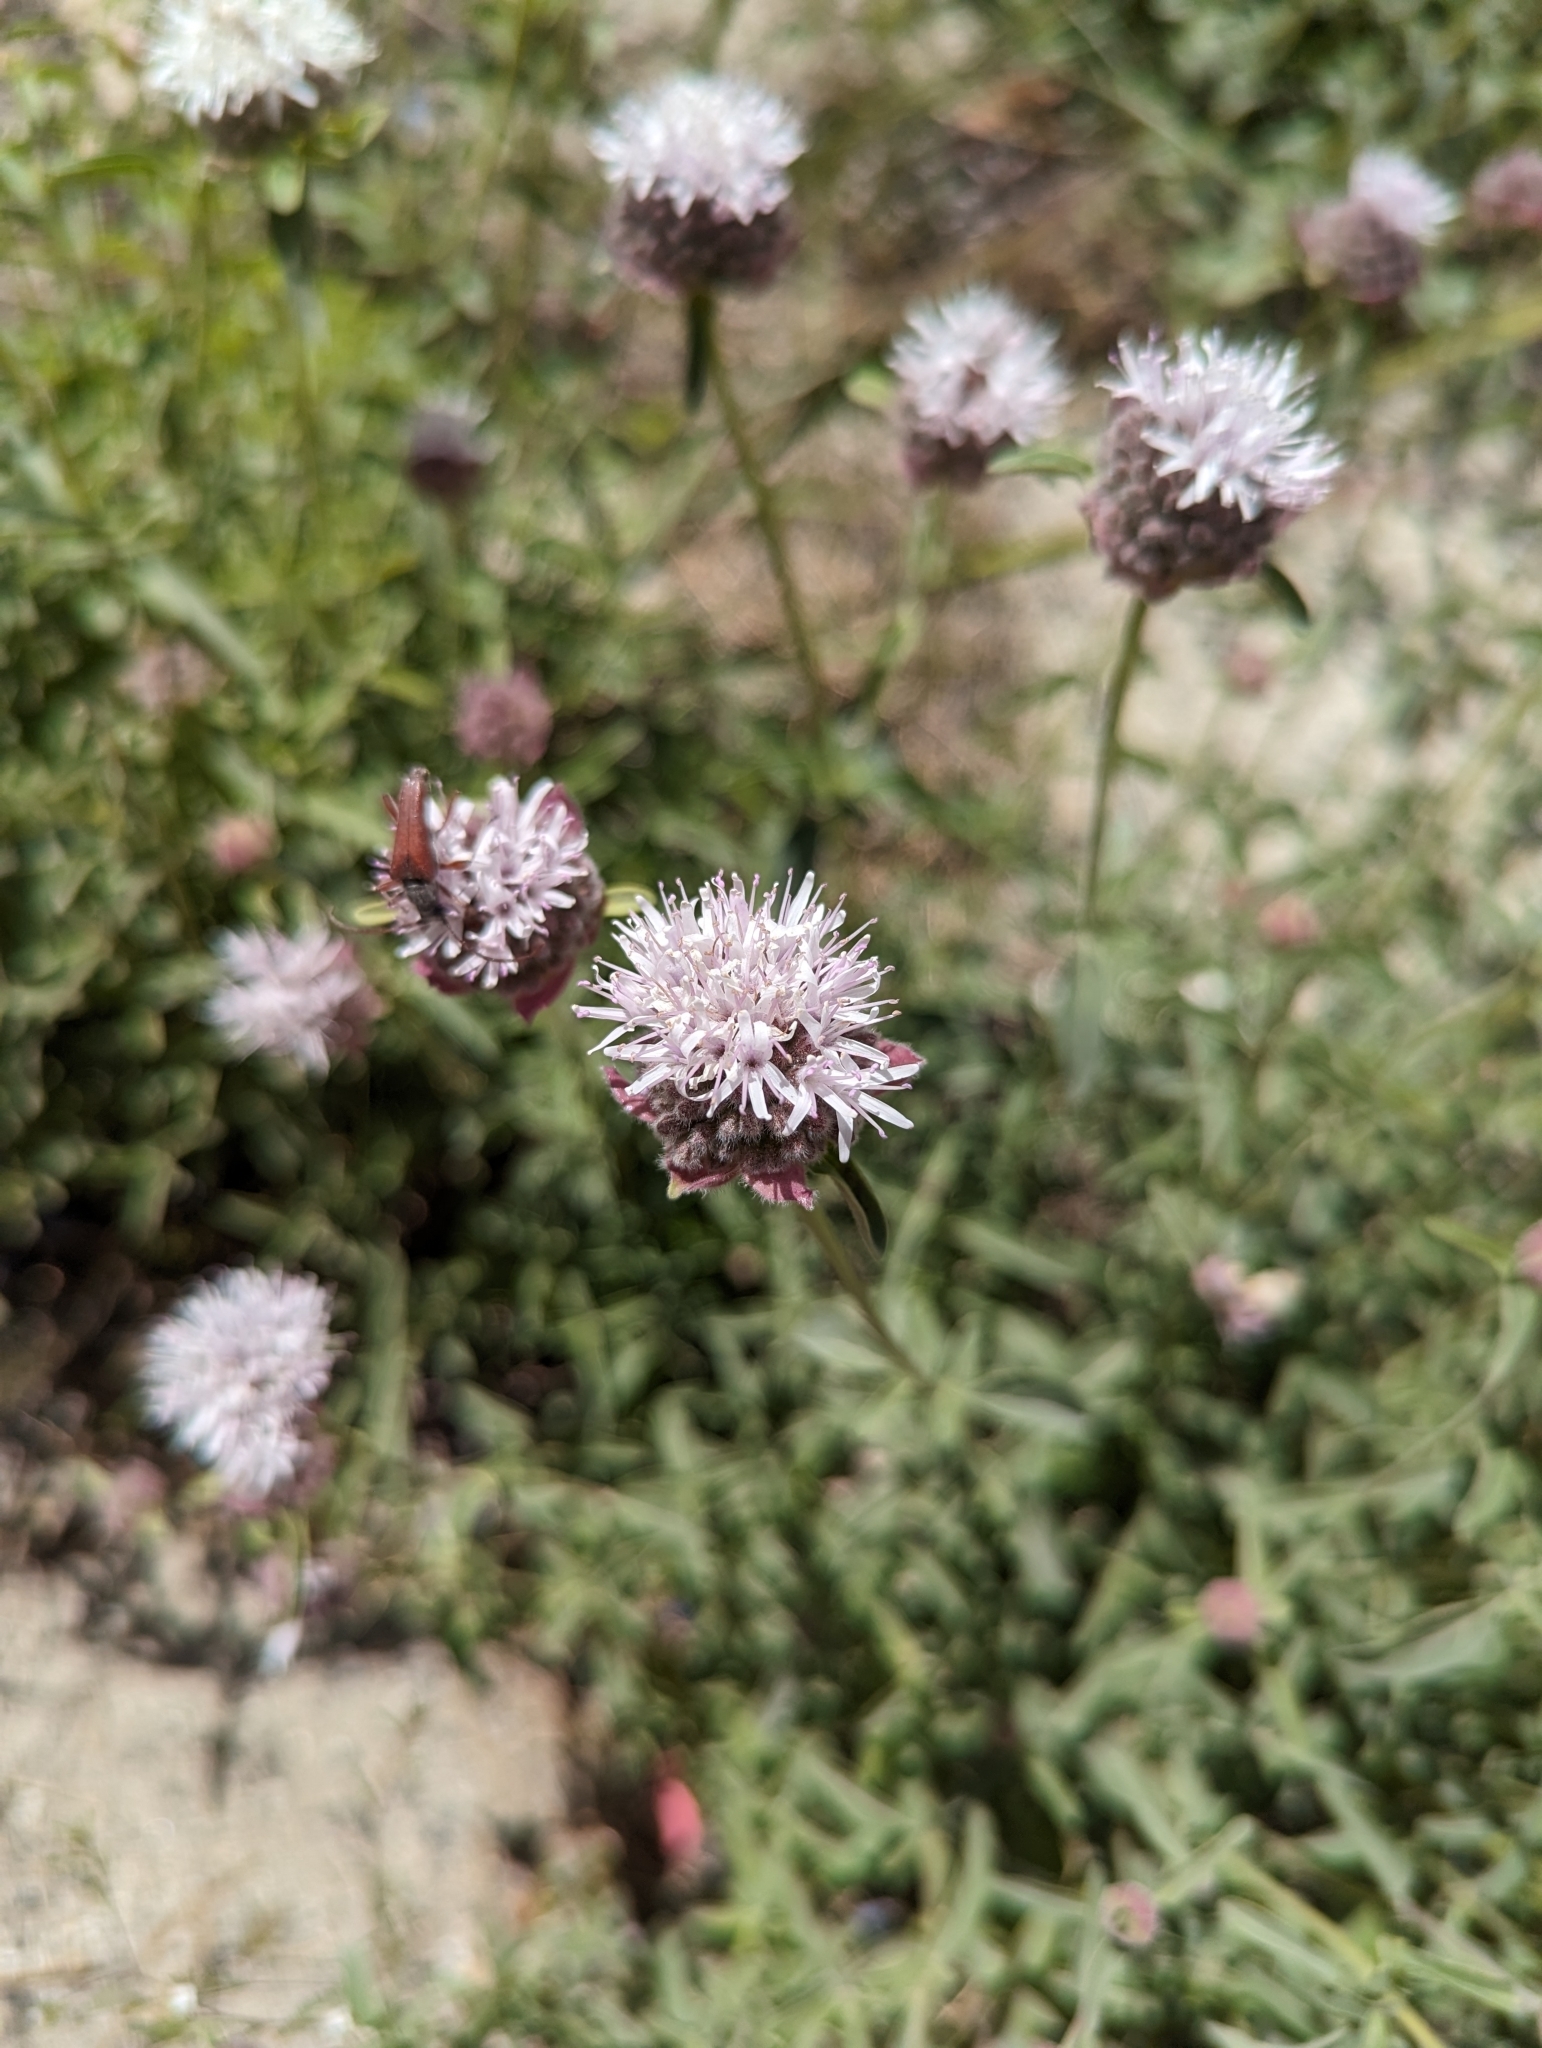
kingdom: Plantae
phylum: Tracheophyta
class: Magnoliopsida
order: Lamiales
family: Lamiaceae
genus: Monardella
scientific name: Monardella odoratissima
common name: Pacific monardella
